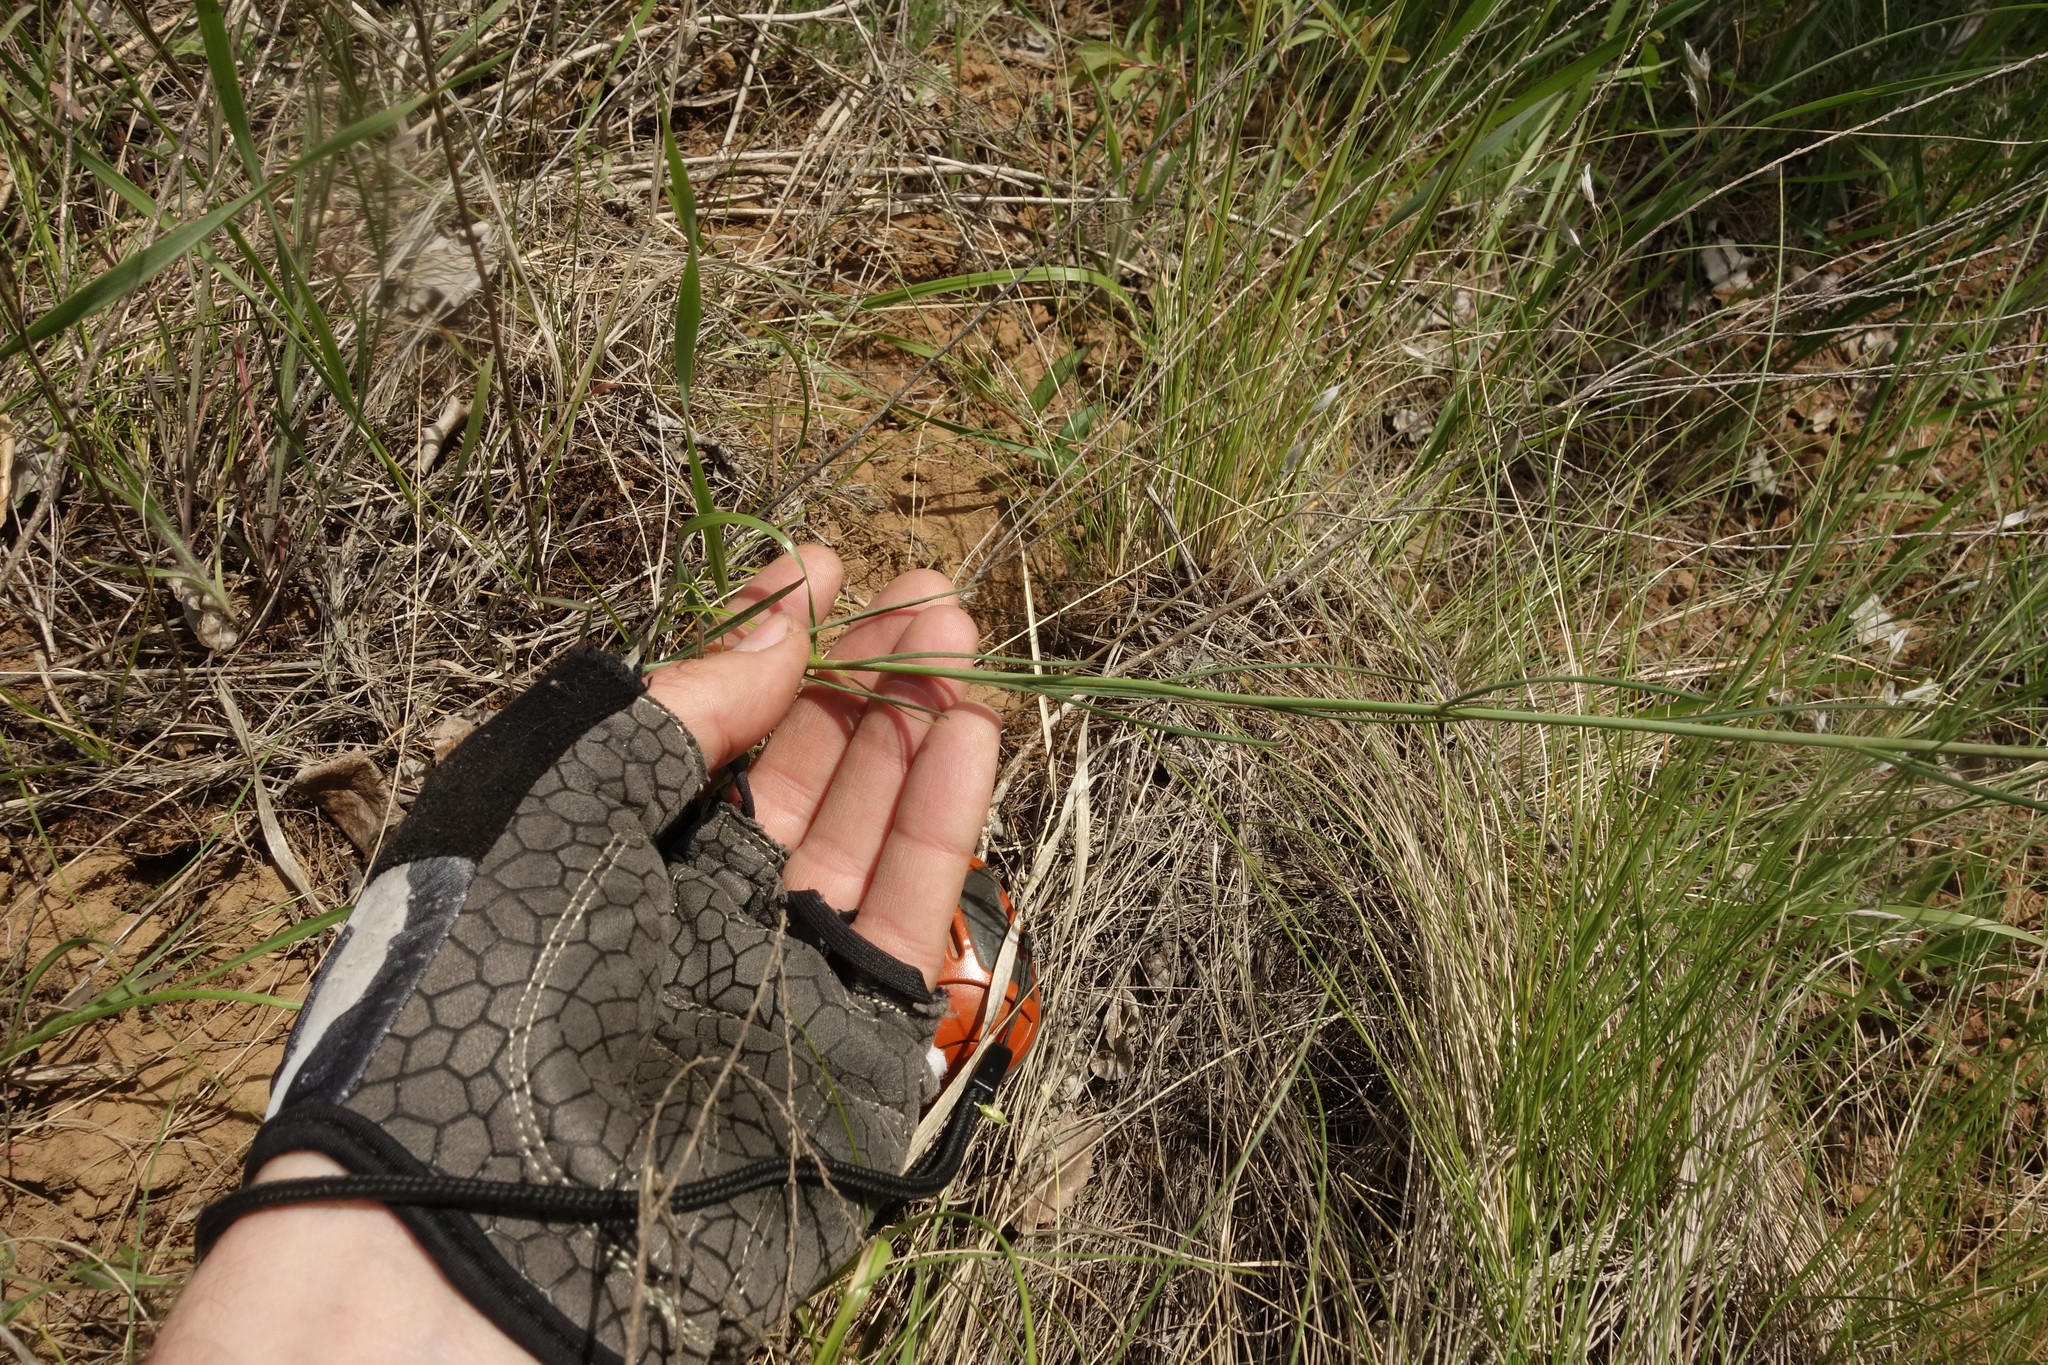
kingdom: Plantae
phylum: Tracheophyta
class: Magnoliopsida
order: Brassicales
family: Brassicaceae
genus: Sisymbrium
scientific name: Sisymbrium polymorphum
